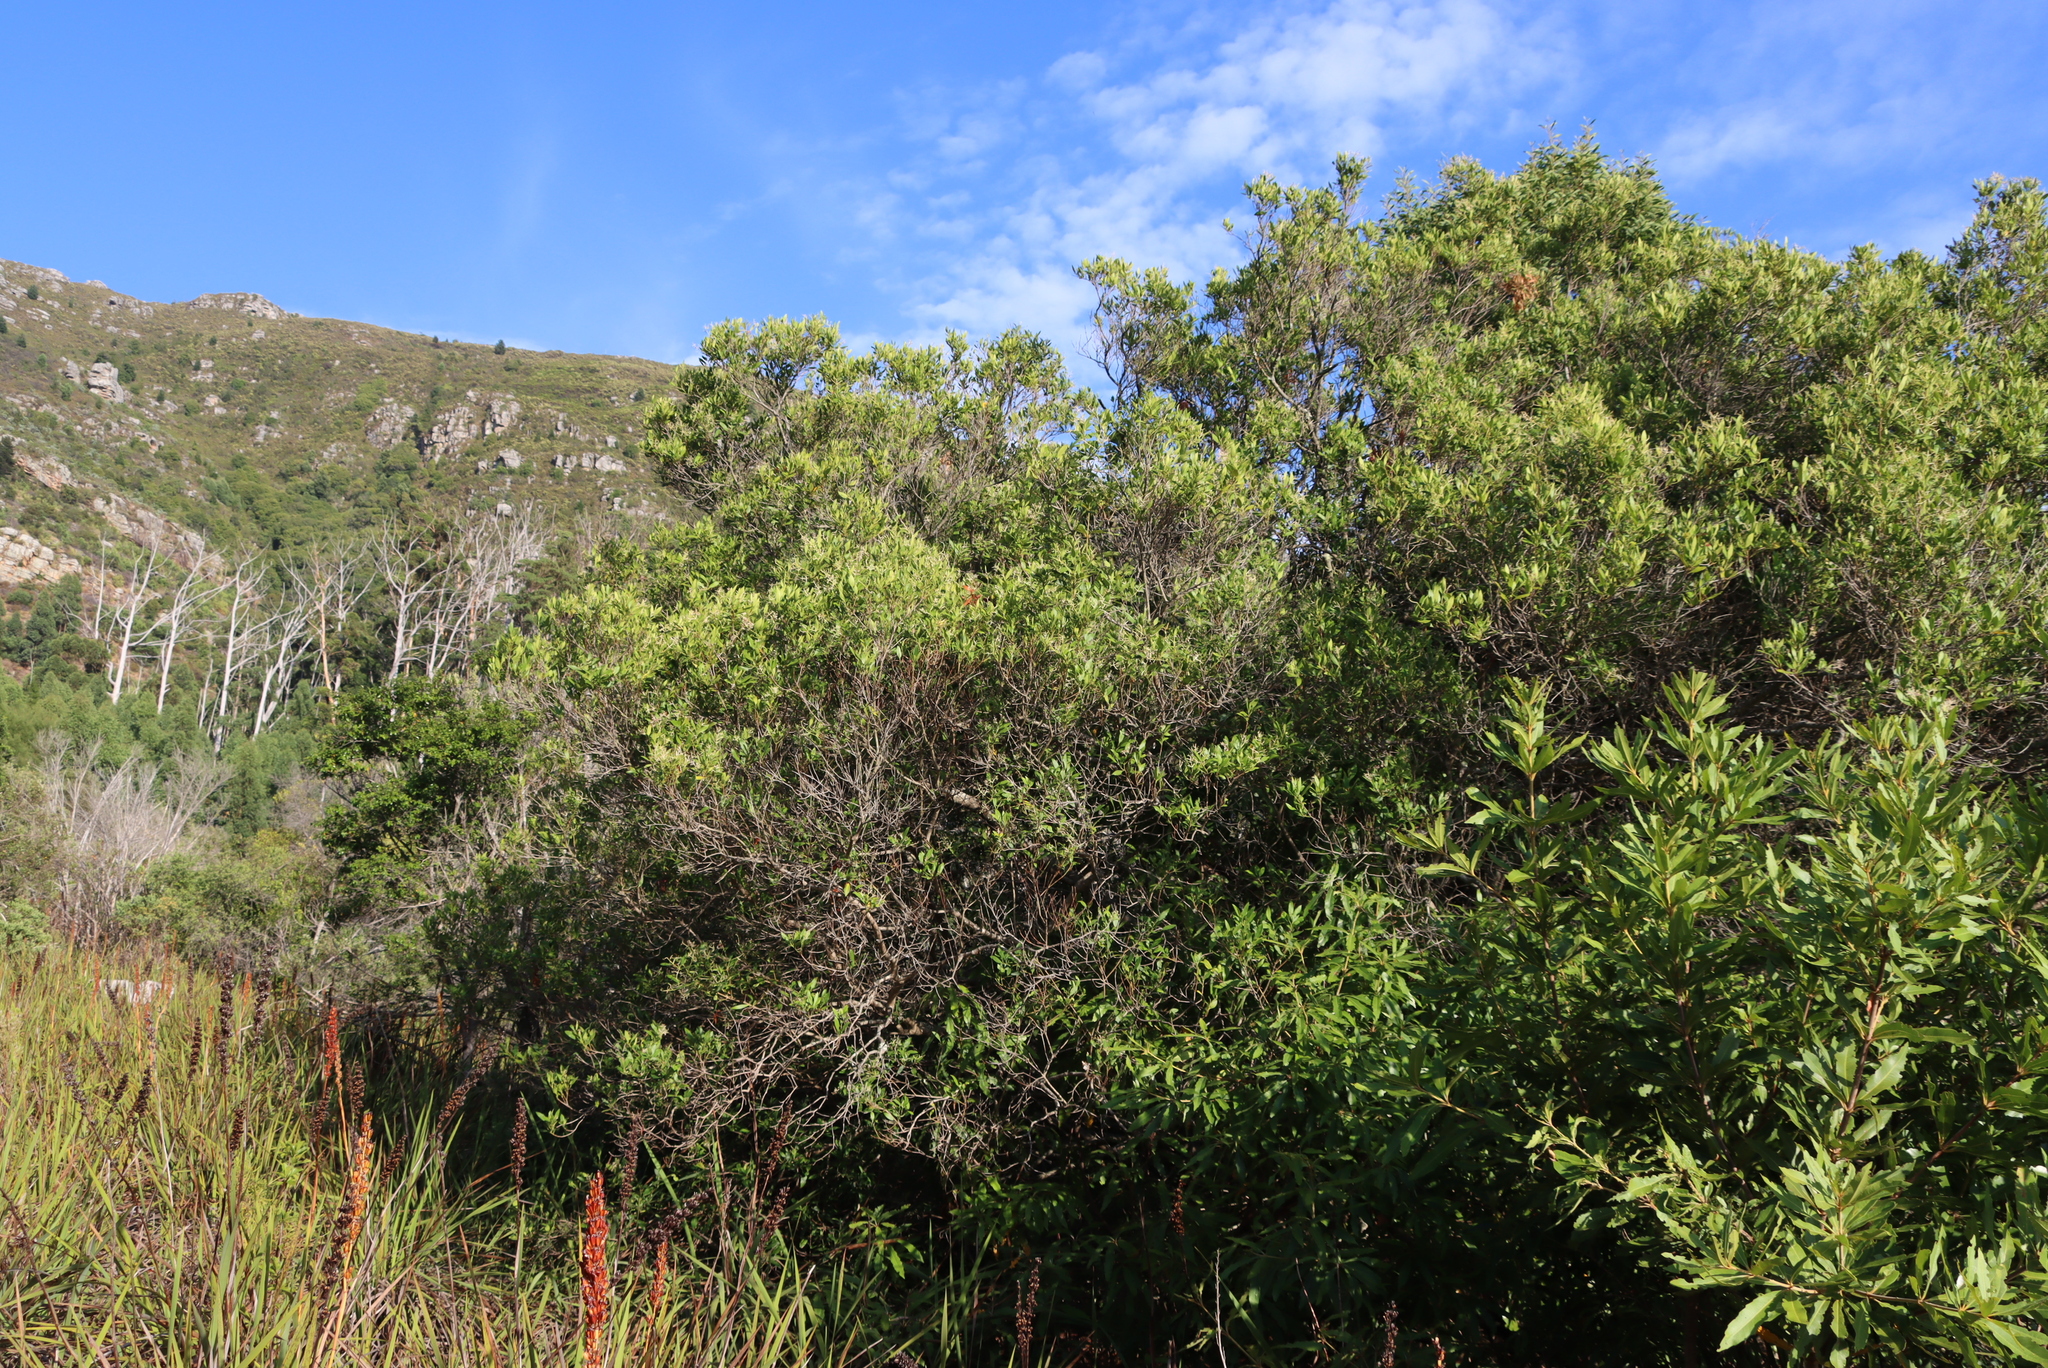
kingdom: Plantae
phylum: Tracheophyta
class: Magnoliopsida
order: Lamiales
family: Oleaceae
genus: Olea
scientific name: Olea europaea
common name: Olive
